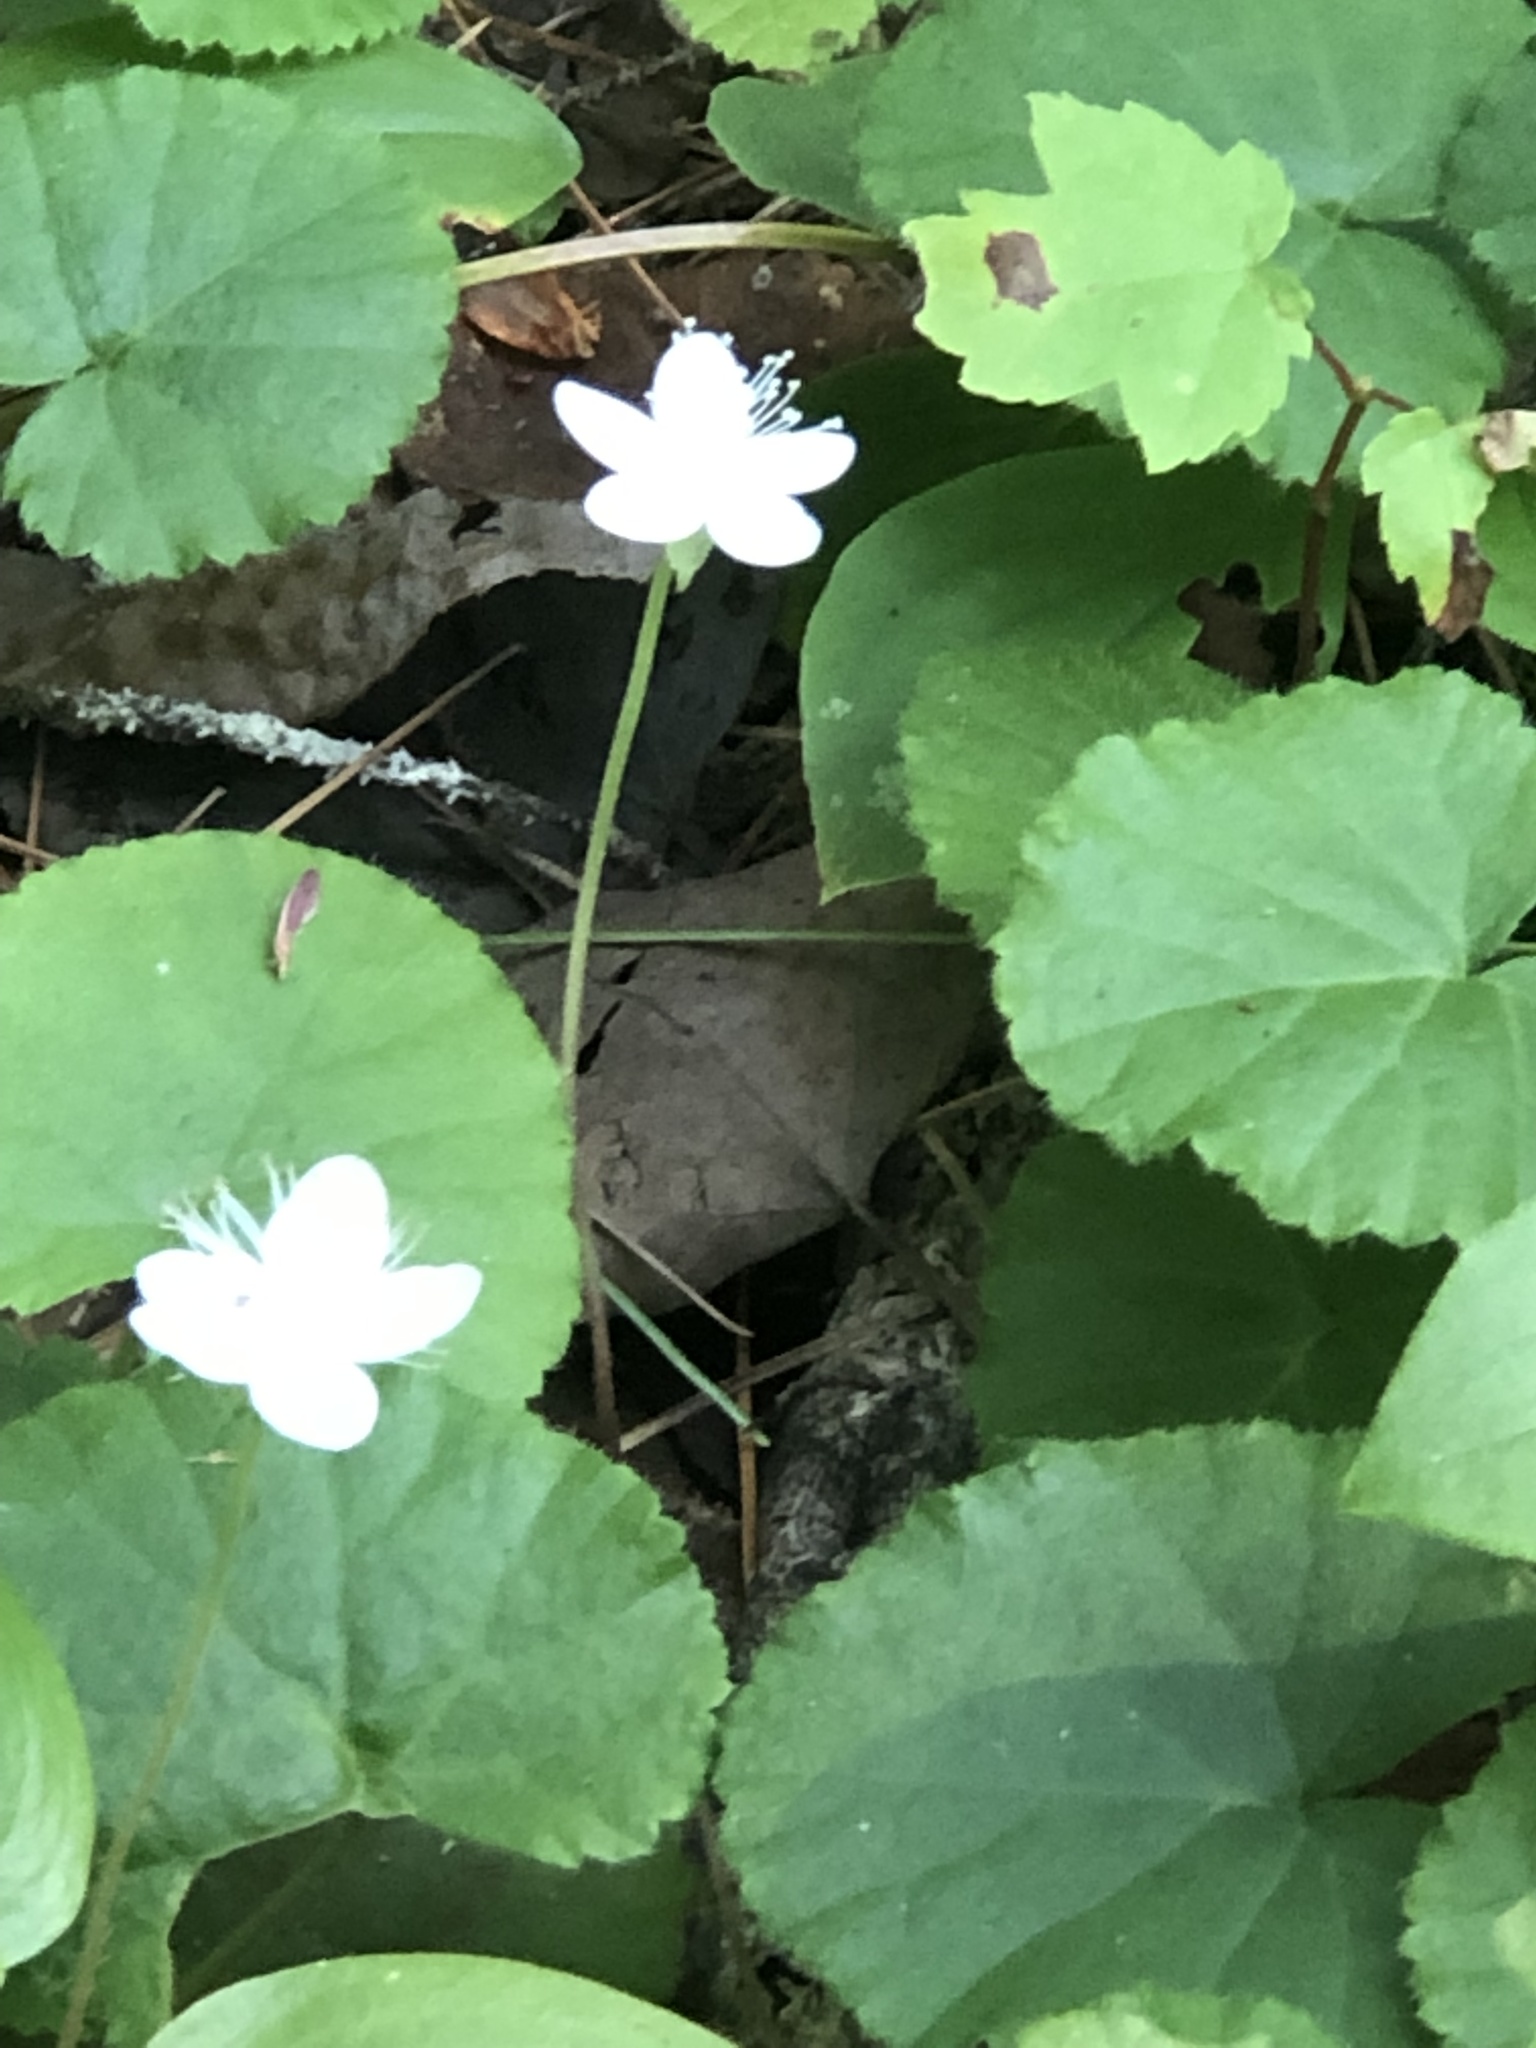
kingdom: Plantae
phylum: Tracheophyta
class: Magnoliopsida
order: Rosales
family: Rosaceae
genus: Dalibarda
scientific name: Dalibarda repens
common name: Dewdrop
